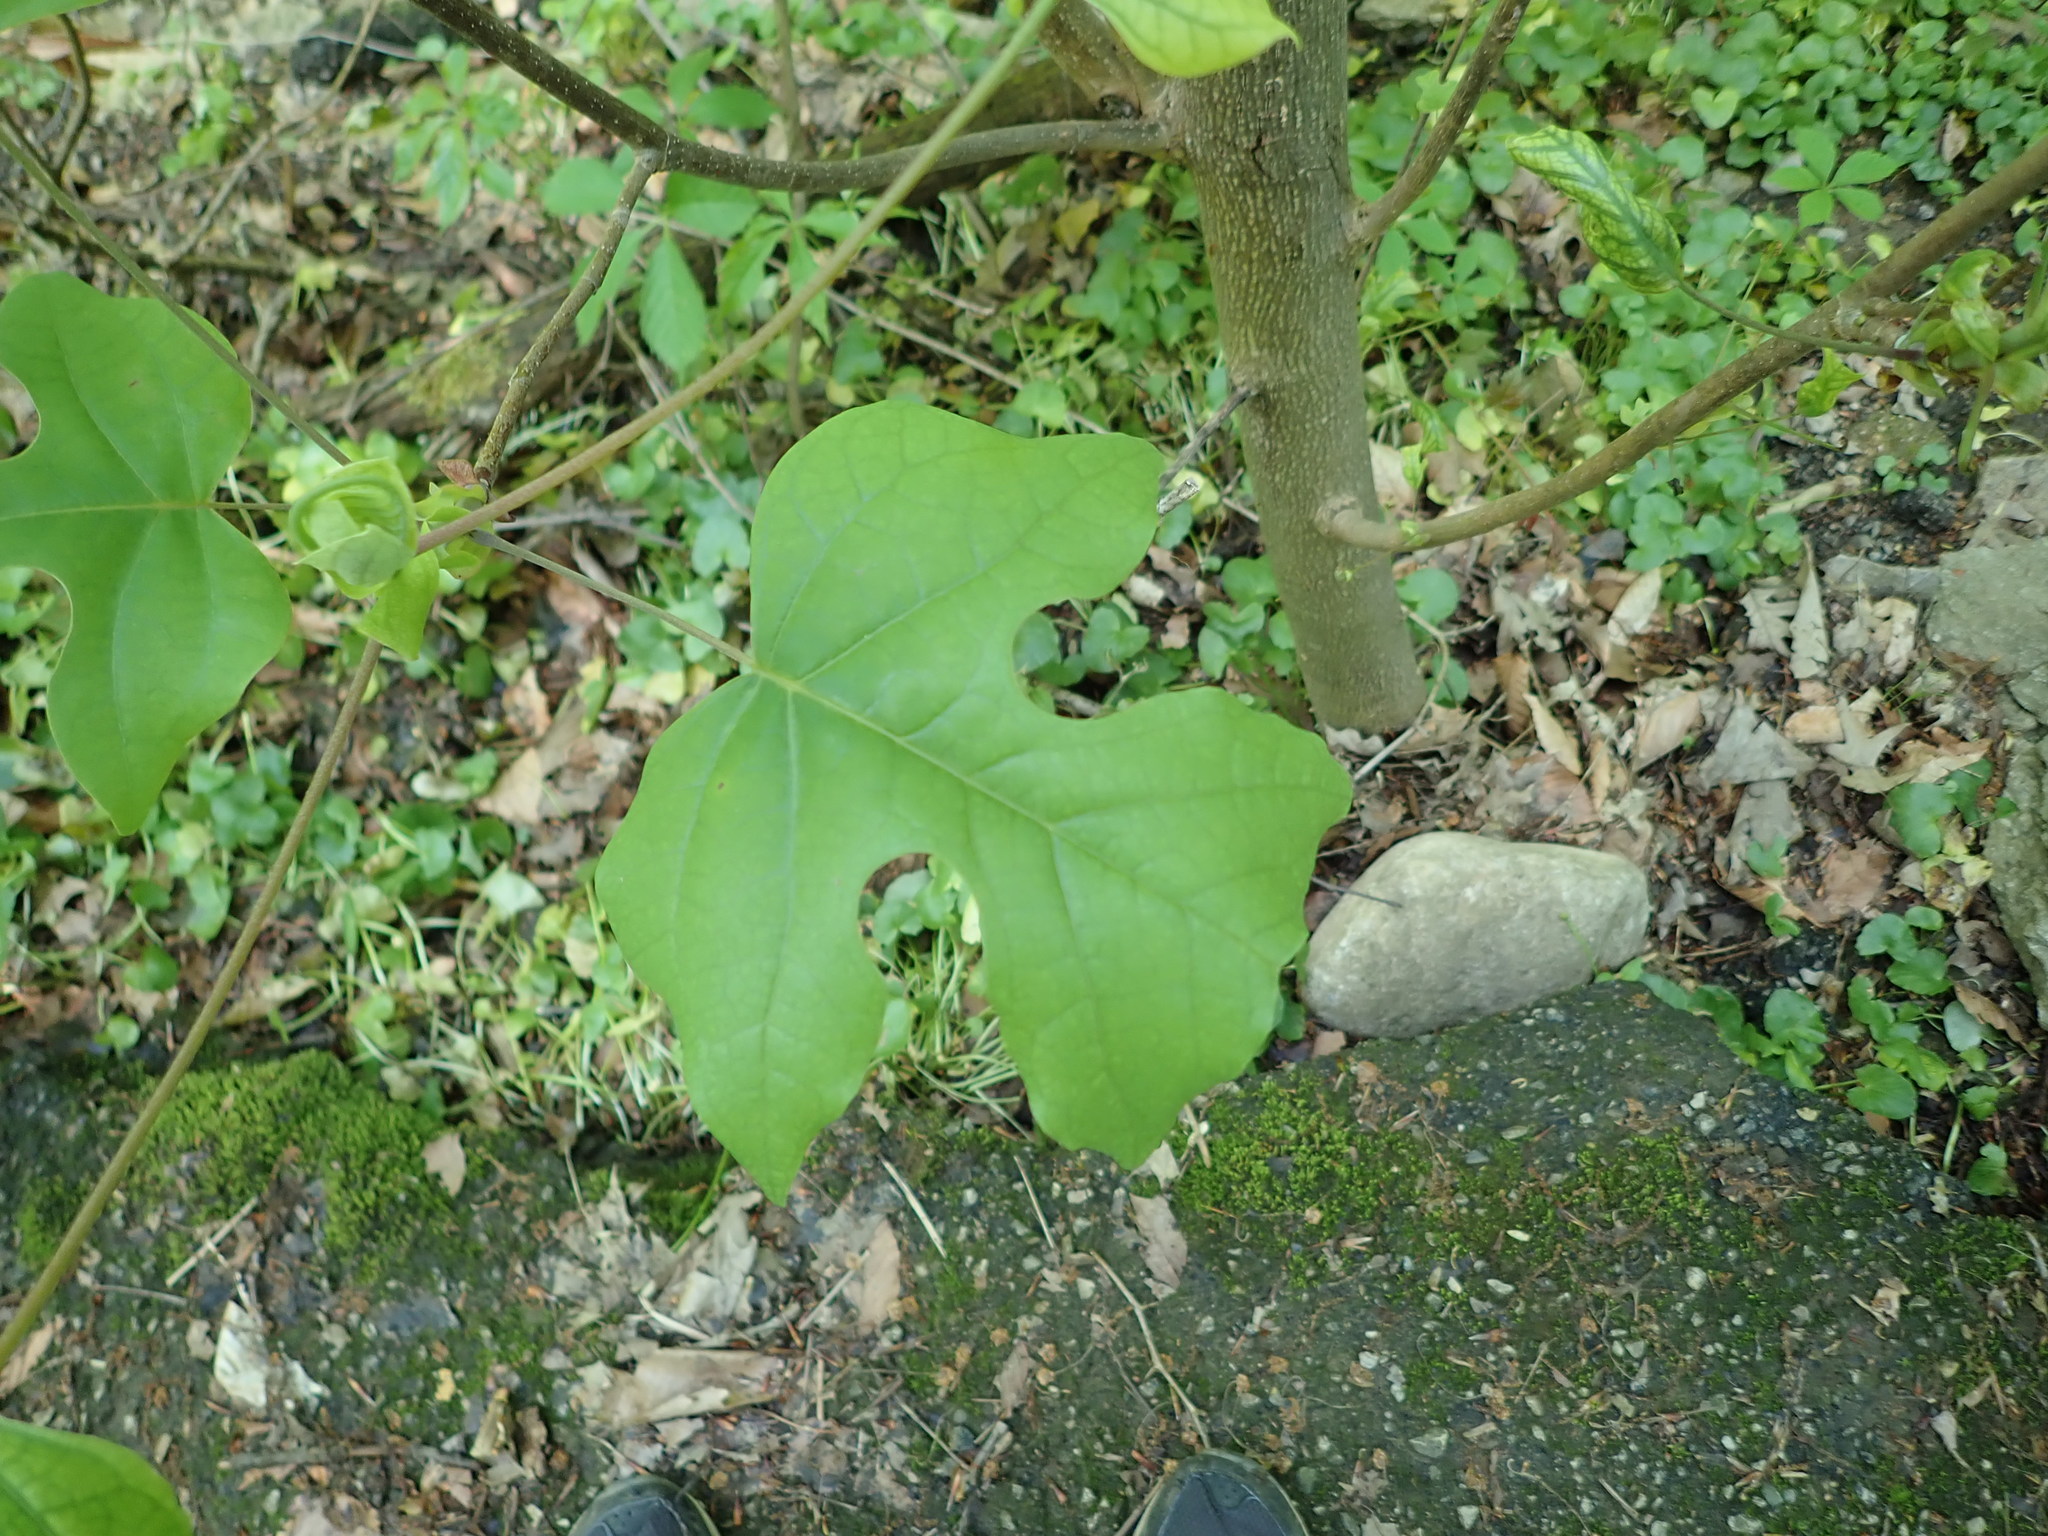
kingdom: Plantae
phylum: Tracheophyta
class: Magnoliopsida
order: Magnoliales
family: Magnoliaceae
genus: Liriodendron
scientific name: Liriodendron tulipifera
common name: Tulip tree
